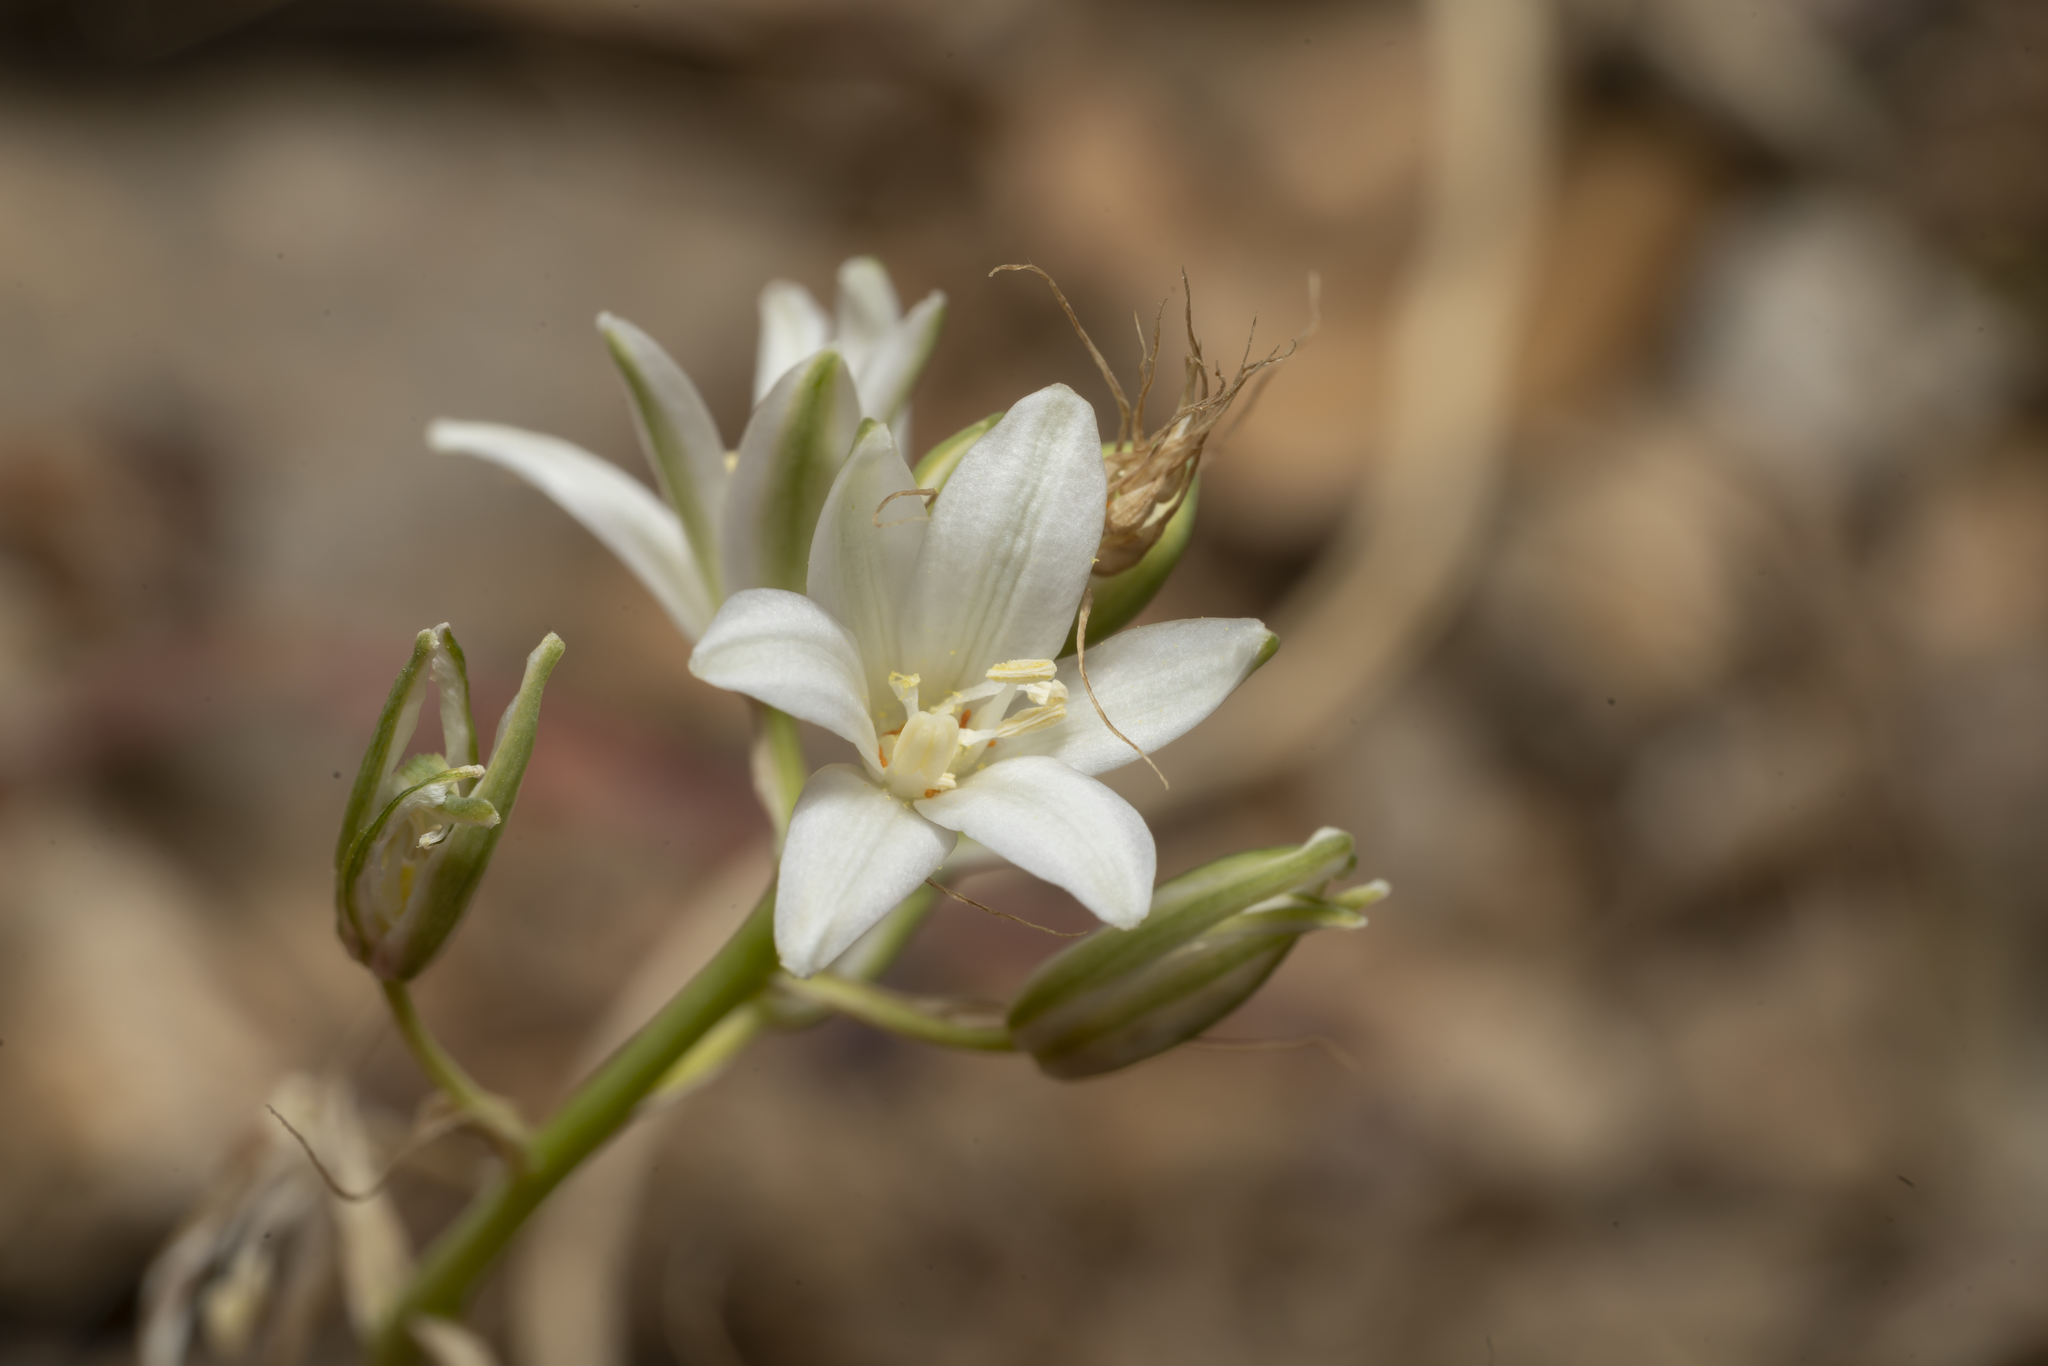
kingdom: Plantae
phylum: Tracheophyta
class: Liliopsida
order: Asparagales
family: Asparagaceae
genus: Ornithogalum
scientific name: Ornithogalum
